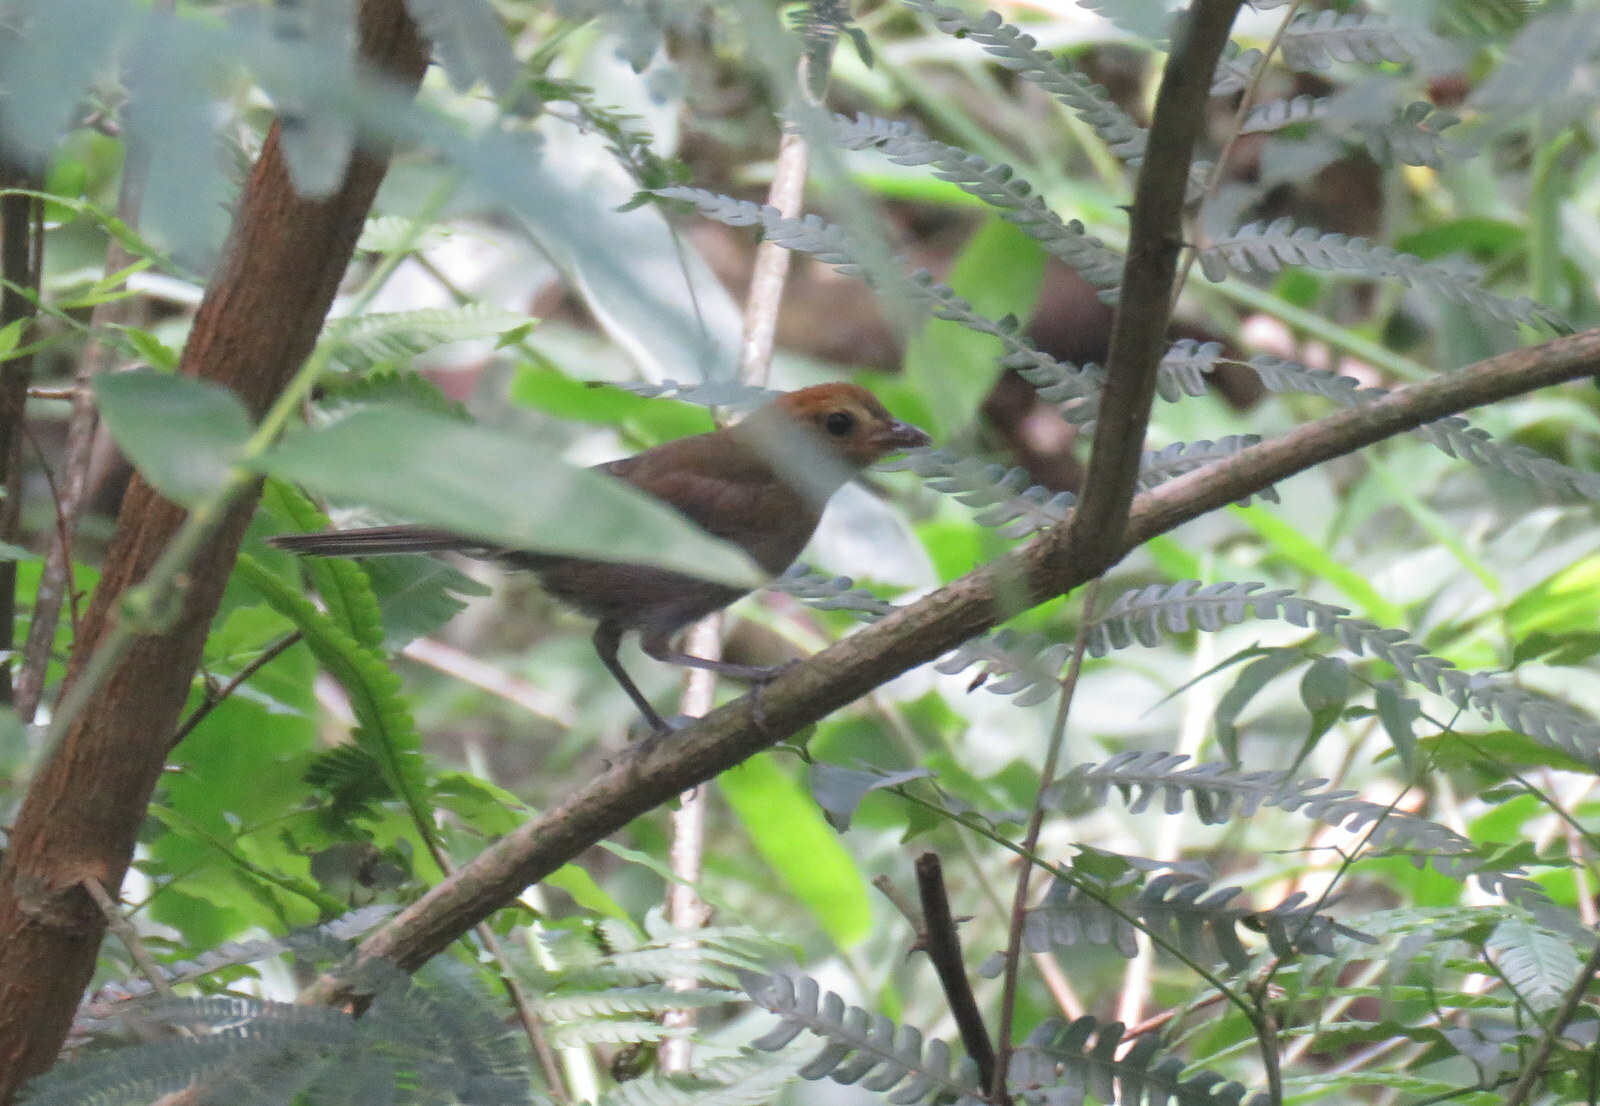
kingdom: Animalia
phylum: Chordata
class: Aves
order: Passeriformes
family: Thraupidae
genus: Thlypopsis
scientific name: Thlypopsis pyrrhocoma
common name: Chestnut-headed tanager
